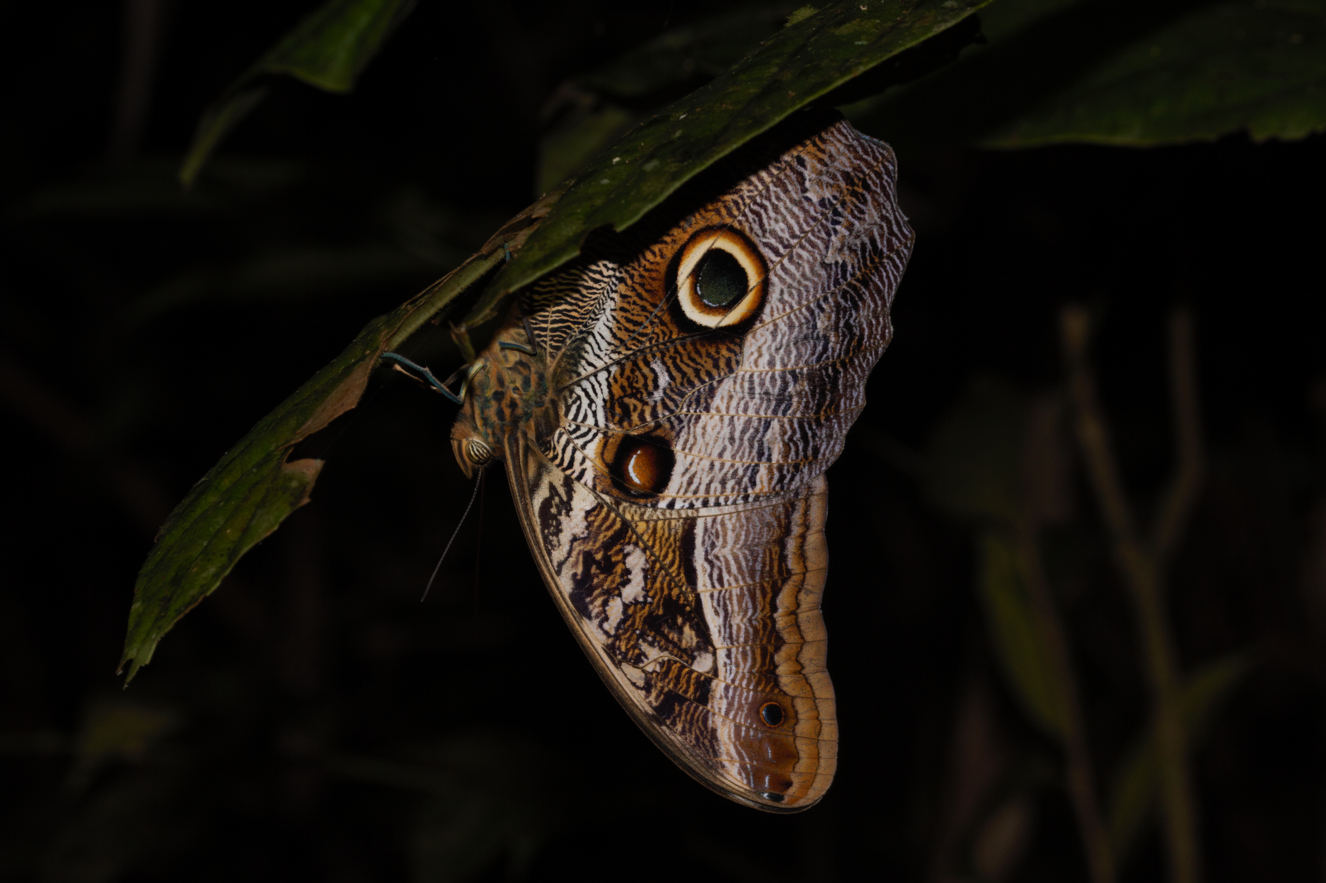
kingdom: Animalia
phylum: Arthropoda
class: Insecta
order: Lepidoptera
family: Nymphalidae
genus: Caligo
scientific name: Caligo idomeneus
